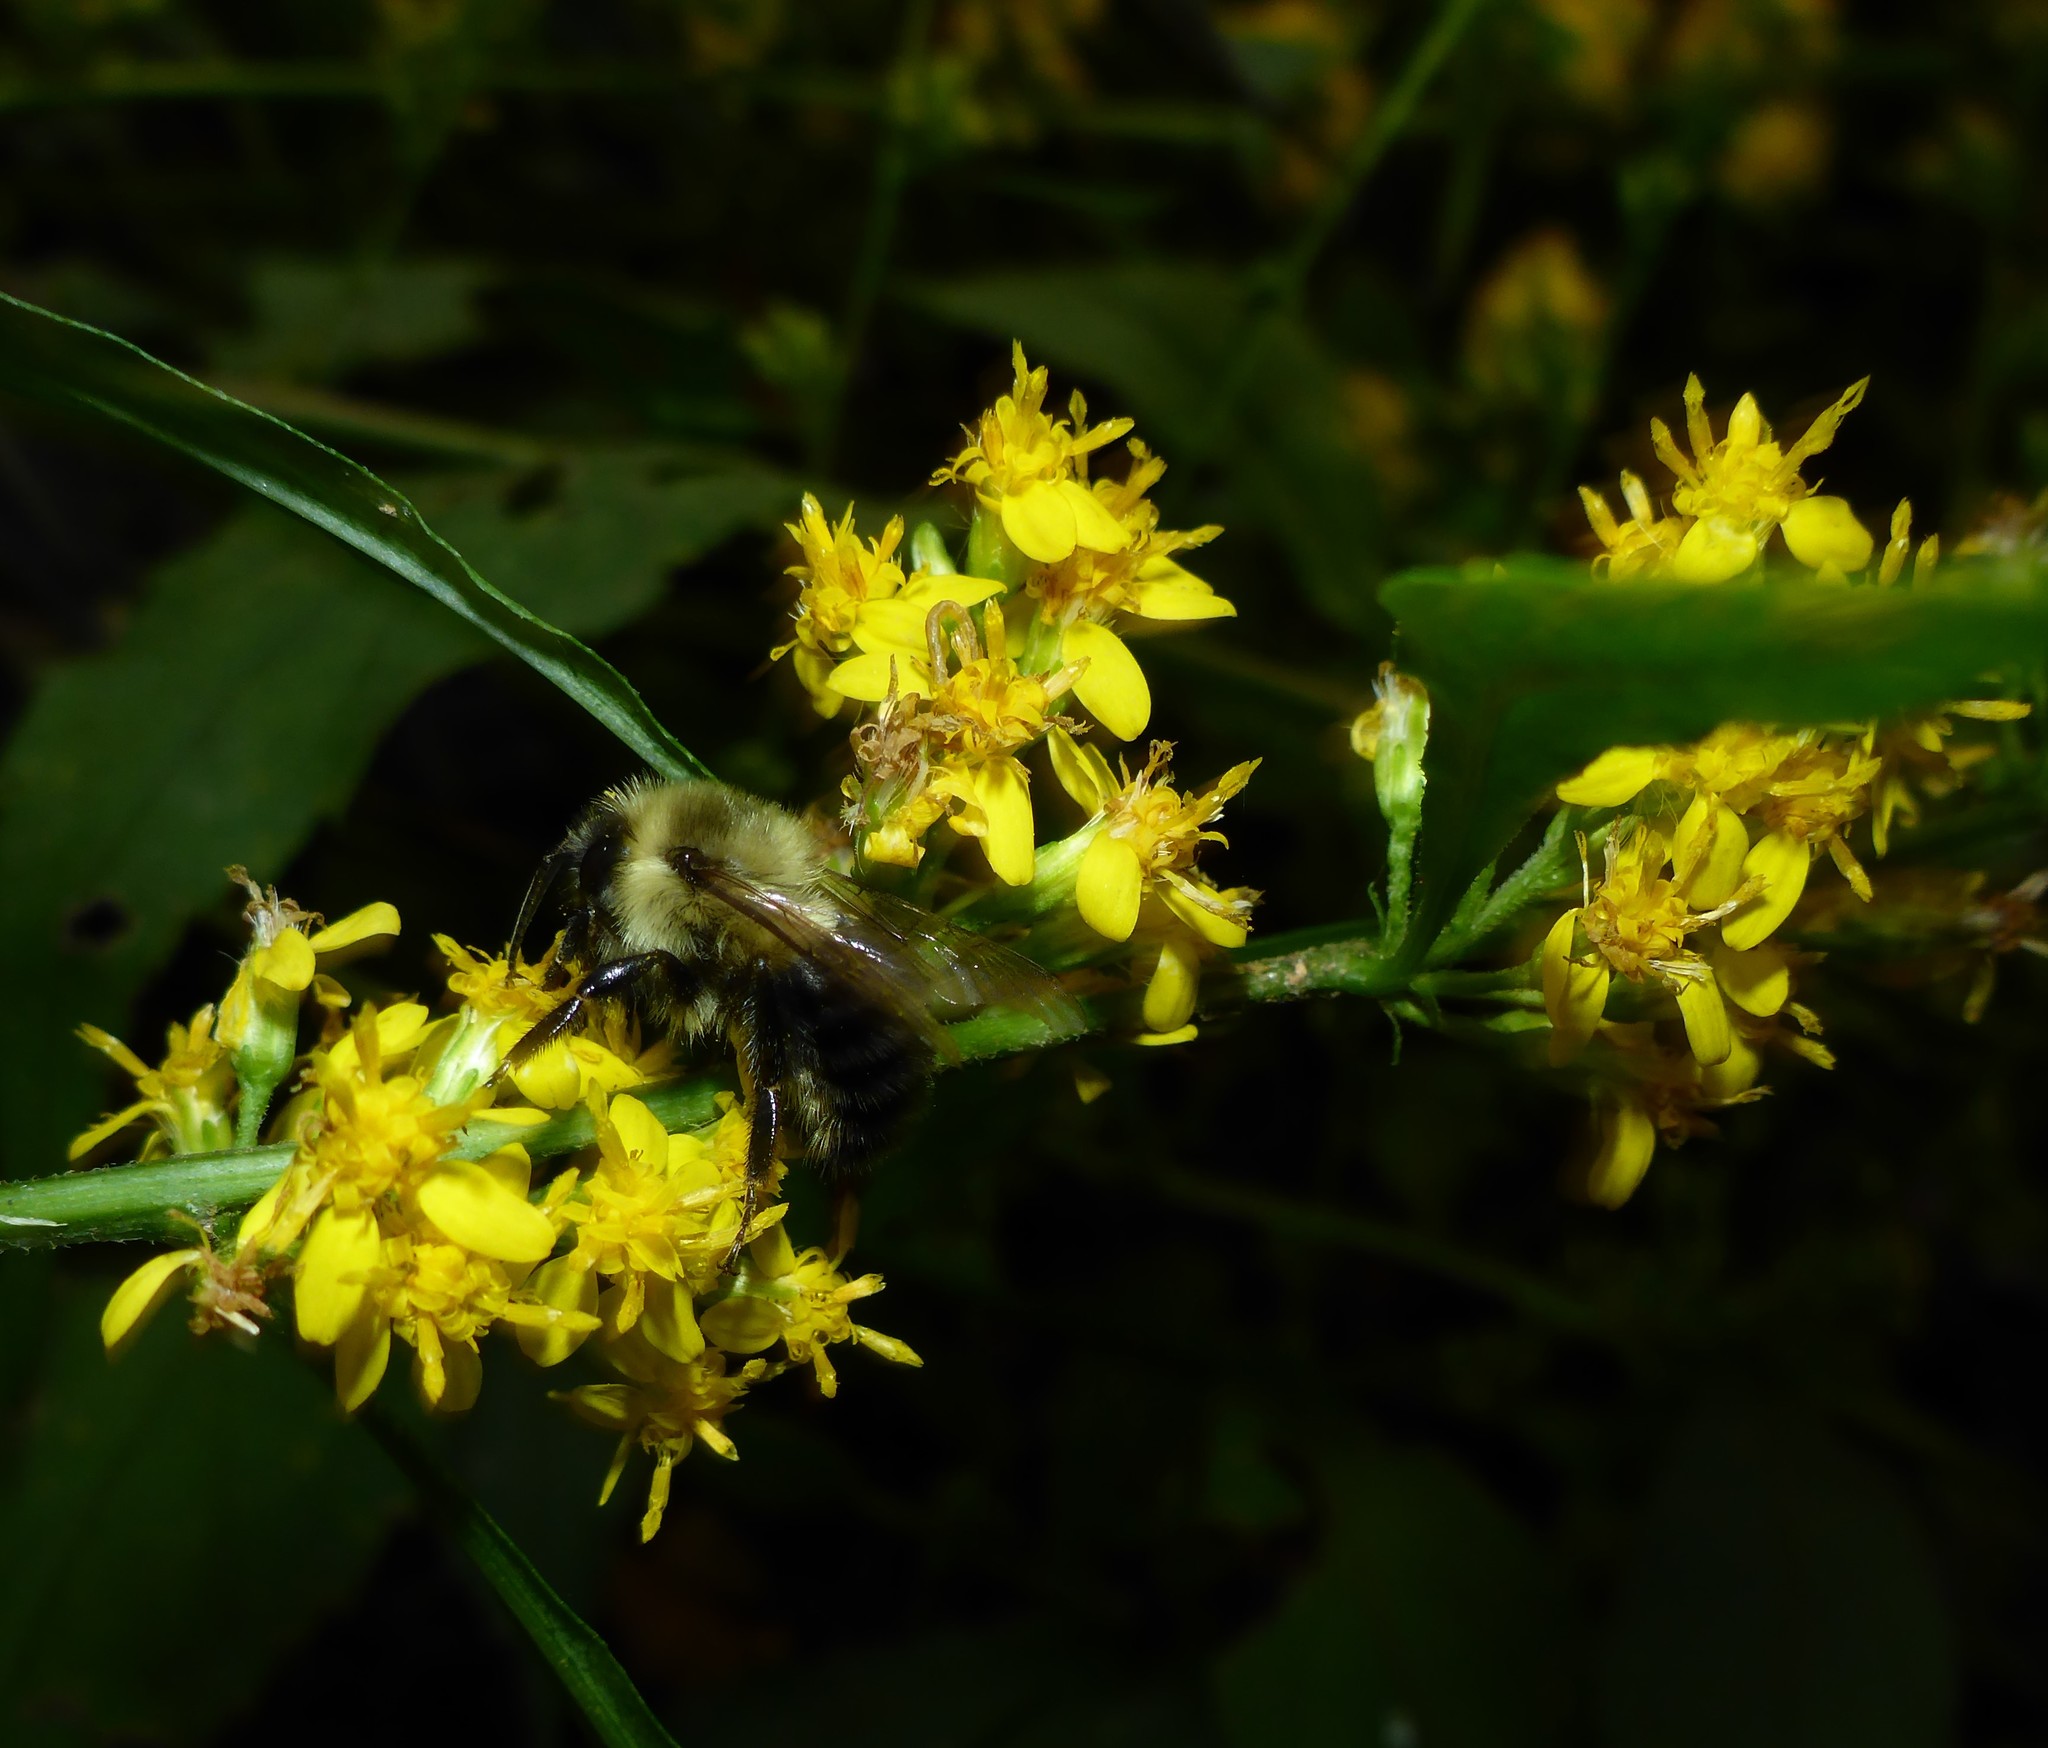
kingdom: Animalia
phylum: Arthropoda
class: Insecta
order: Hymenoptera
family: Apidae
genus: Bombus
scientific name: Bombus impatiens
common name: Common eastern bumble bee
